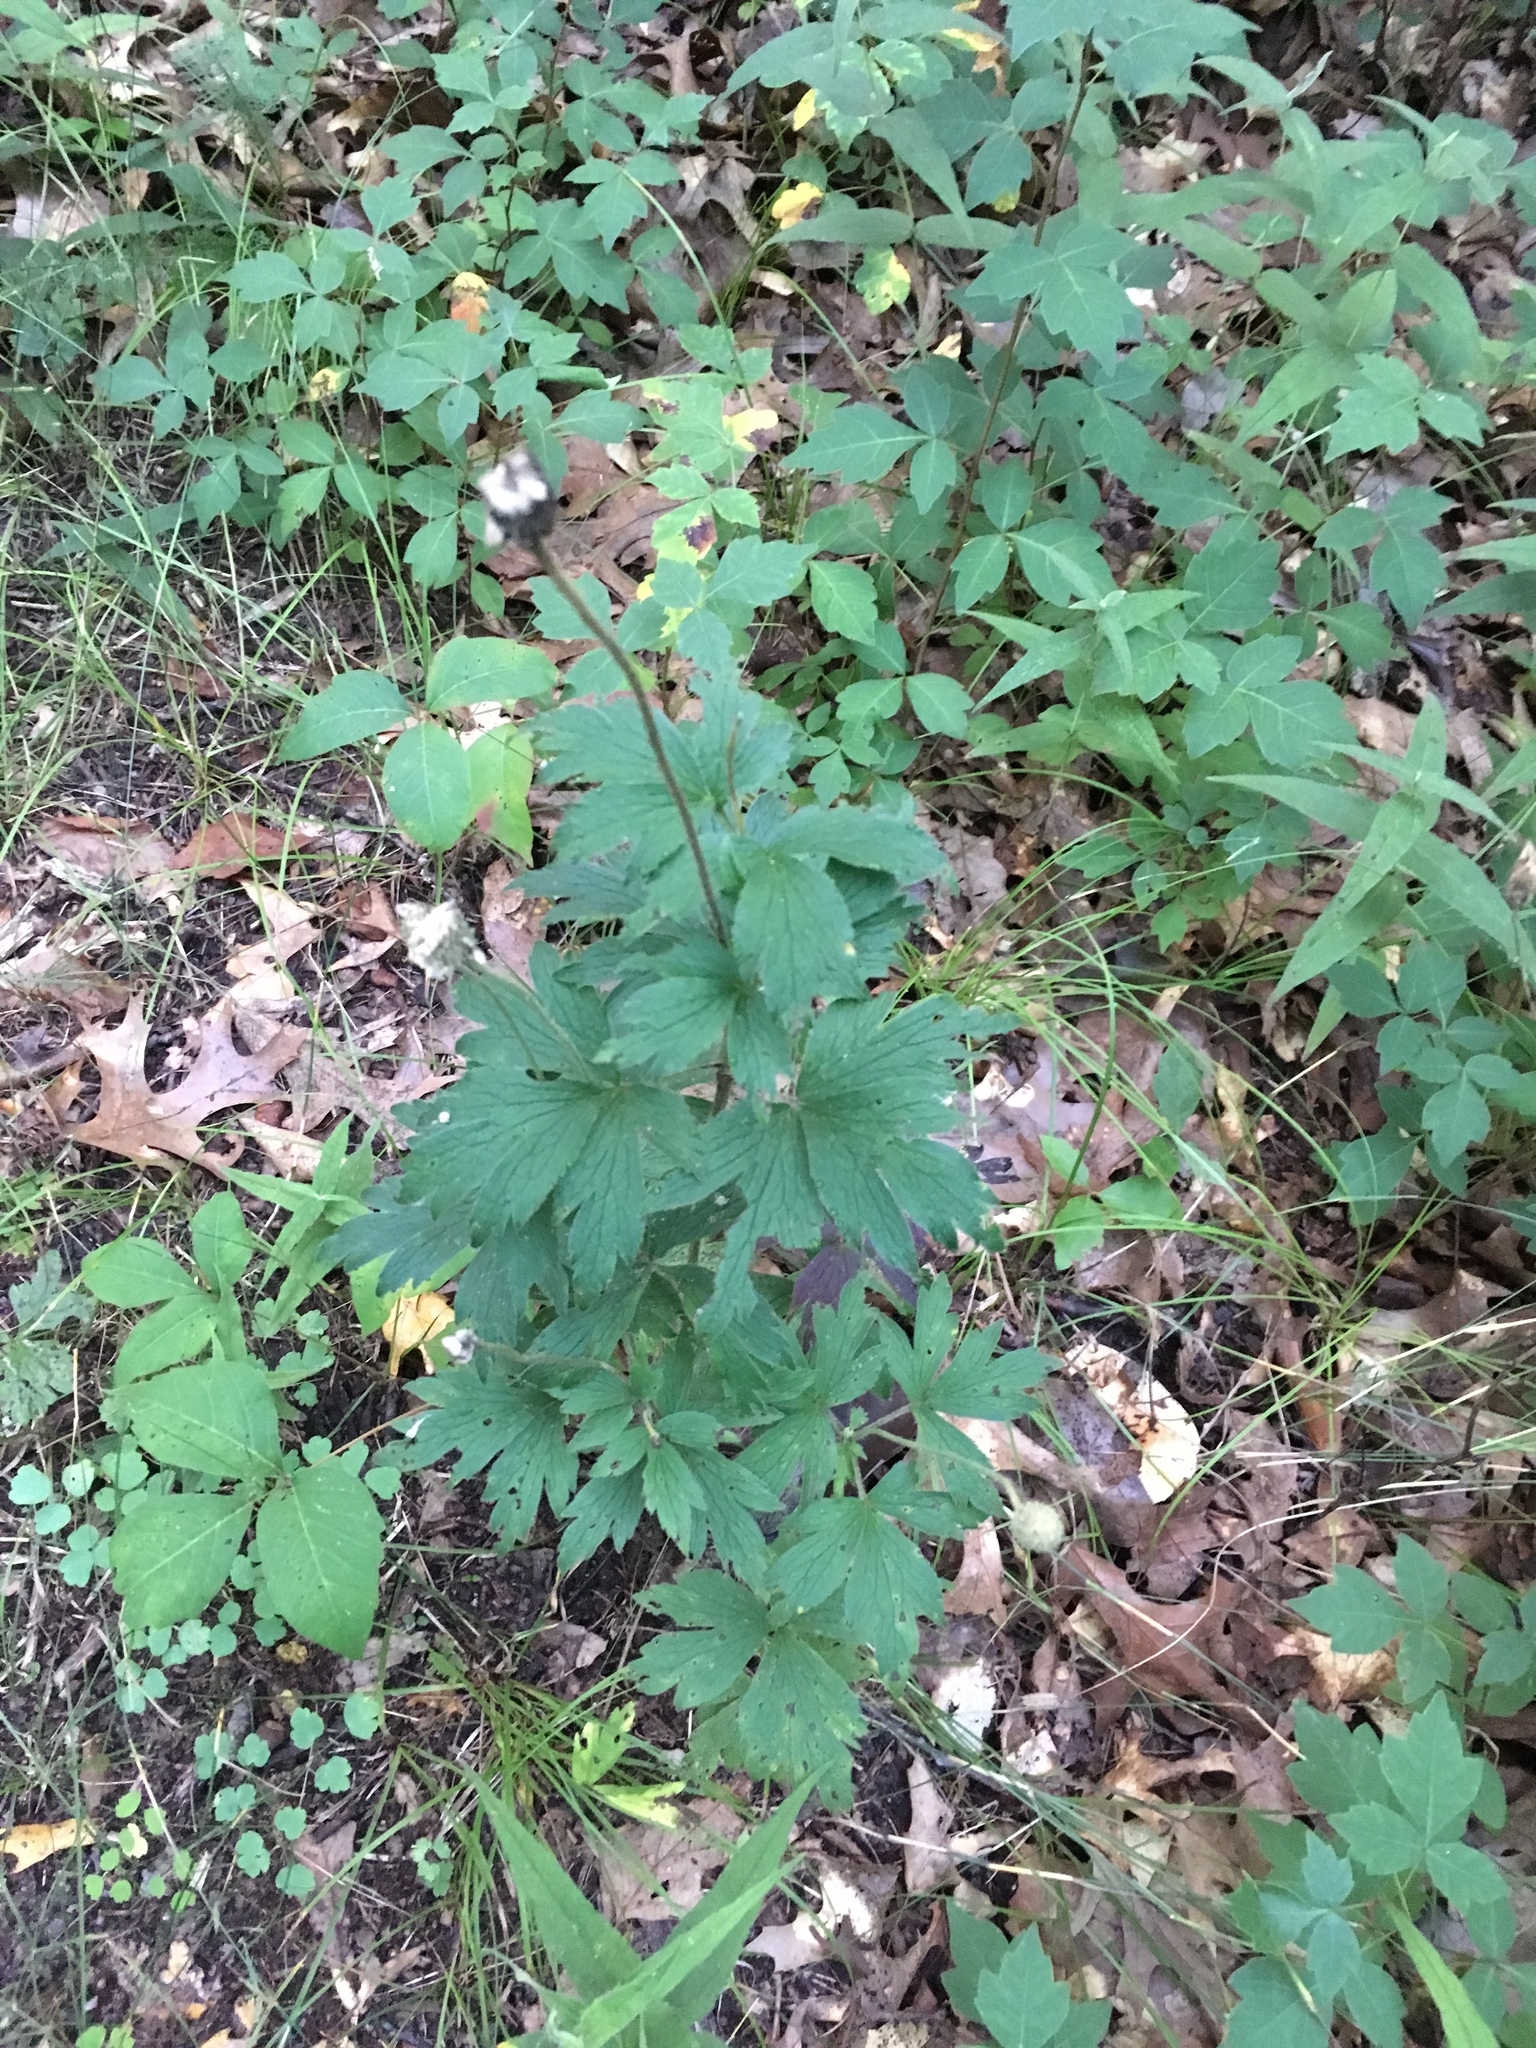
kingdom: Plantae
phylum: Tracheophyta
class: Magnoliopsida
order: Ranunculales
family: Ranunculaceae
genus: Anemone
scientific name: Anemone virginiana
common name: Tall anemone
